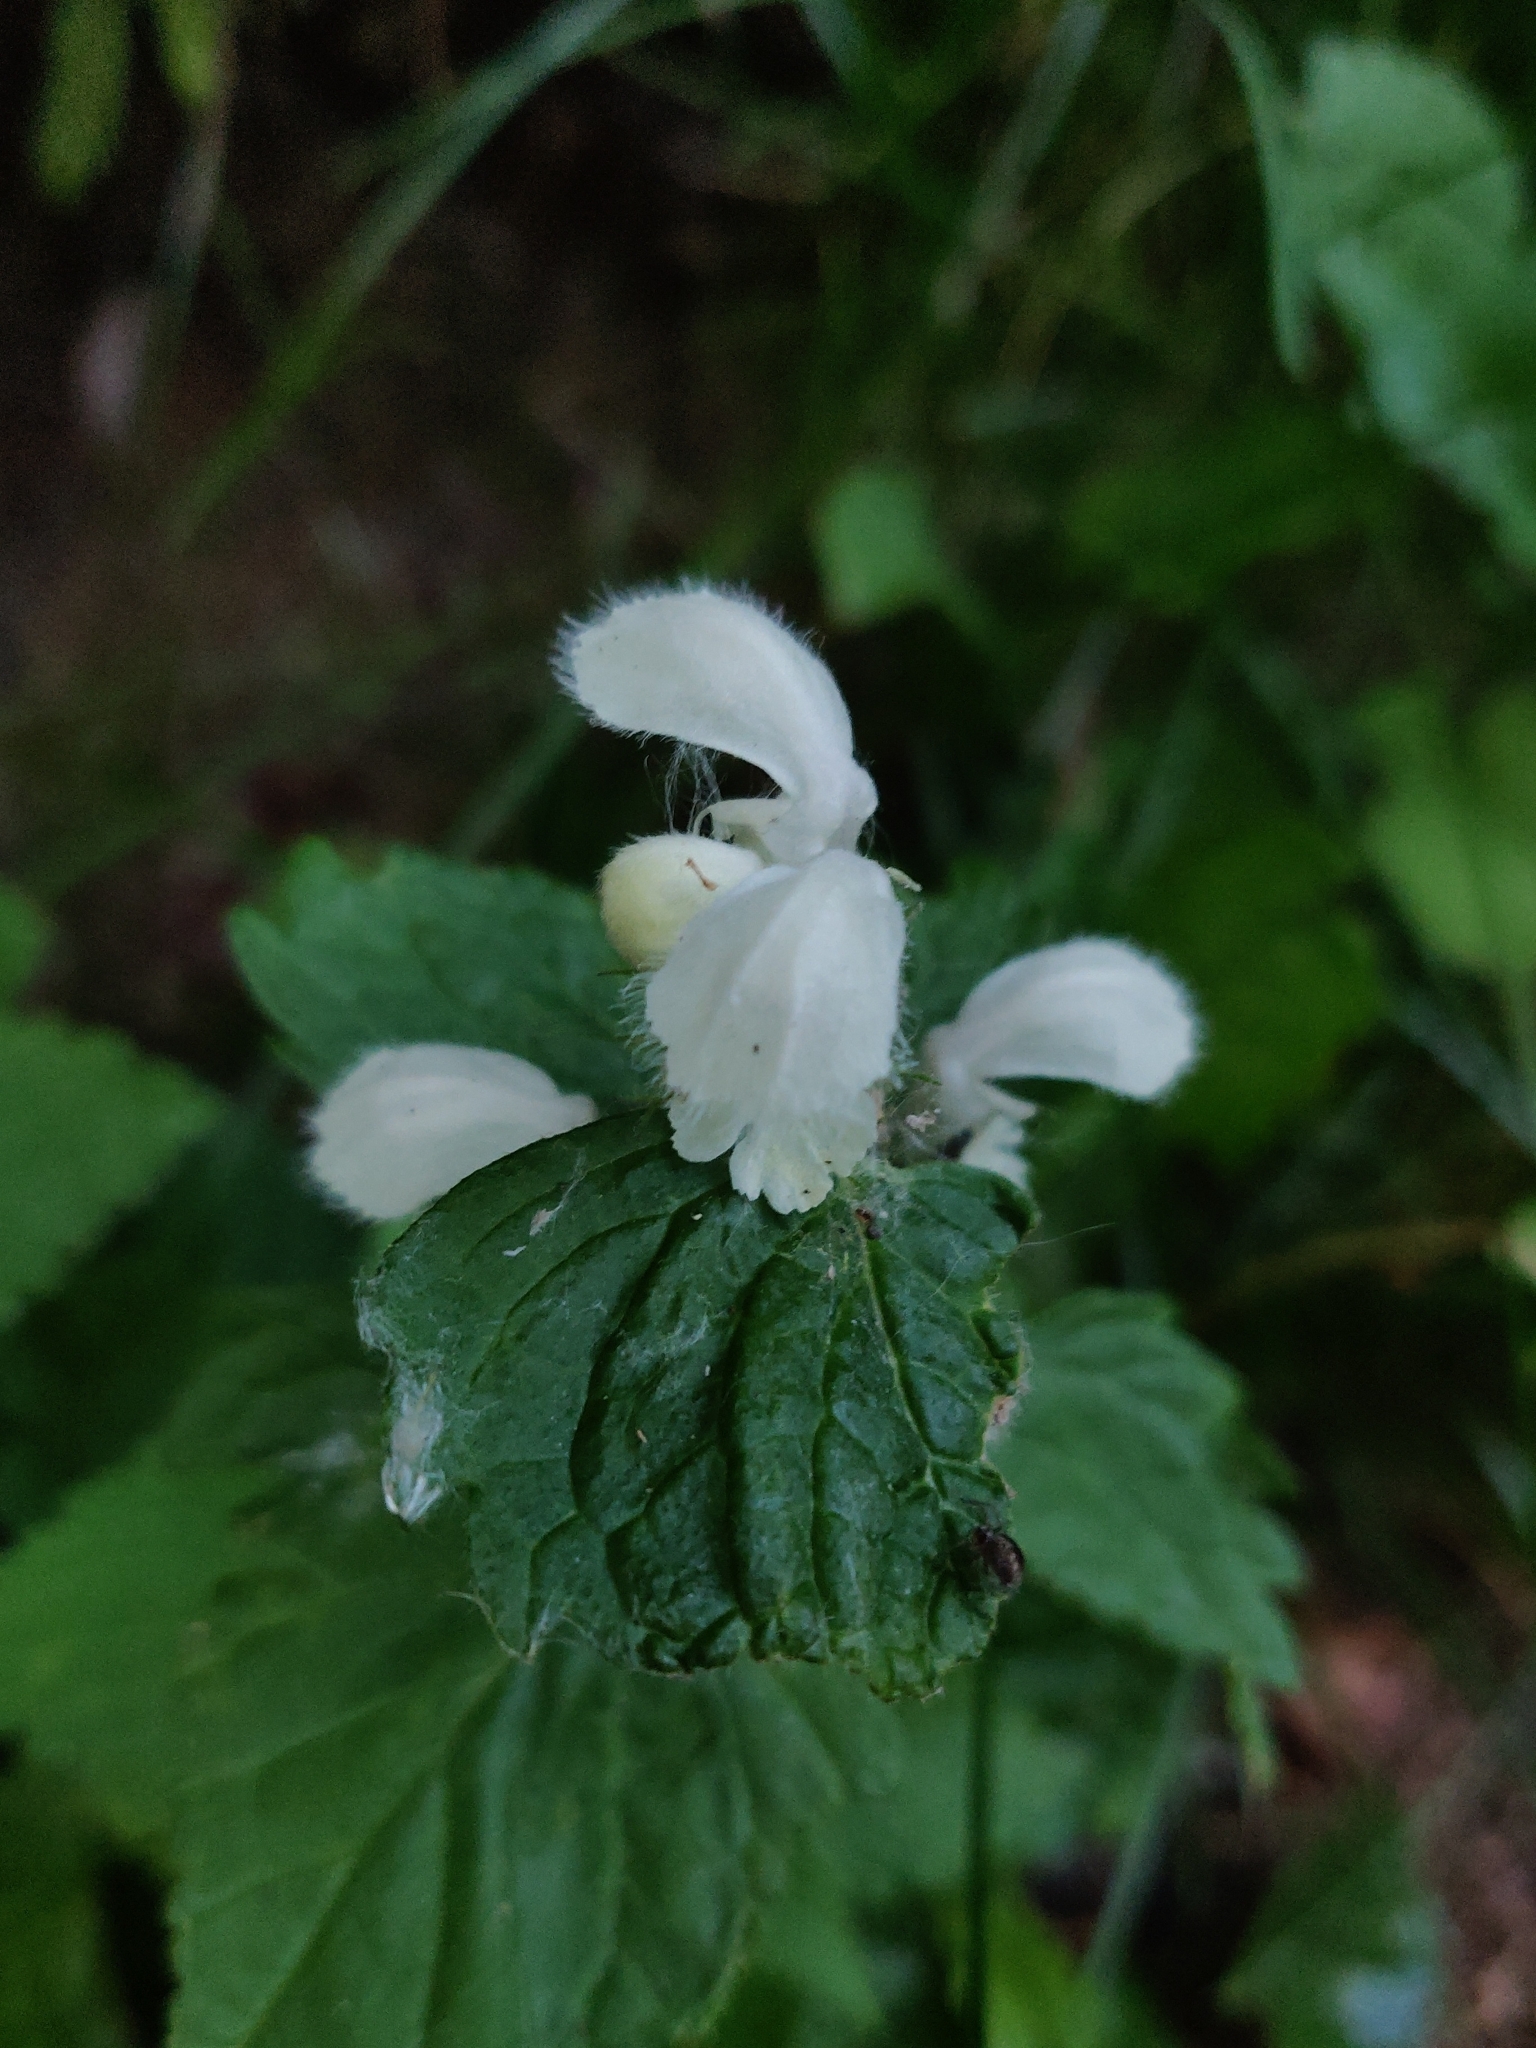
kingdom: Plantae
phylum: Tracheophyta
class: Magnoliopsida
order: Lamiales
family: Lamiaceae
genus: Lamium
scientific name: Lamium album
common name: White dead-nettle
